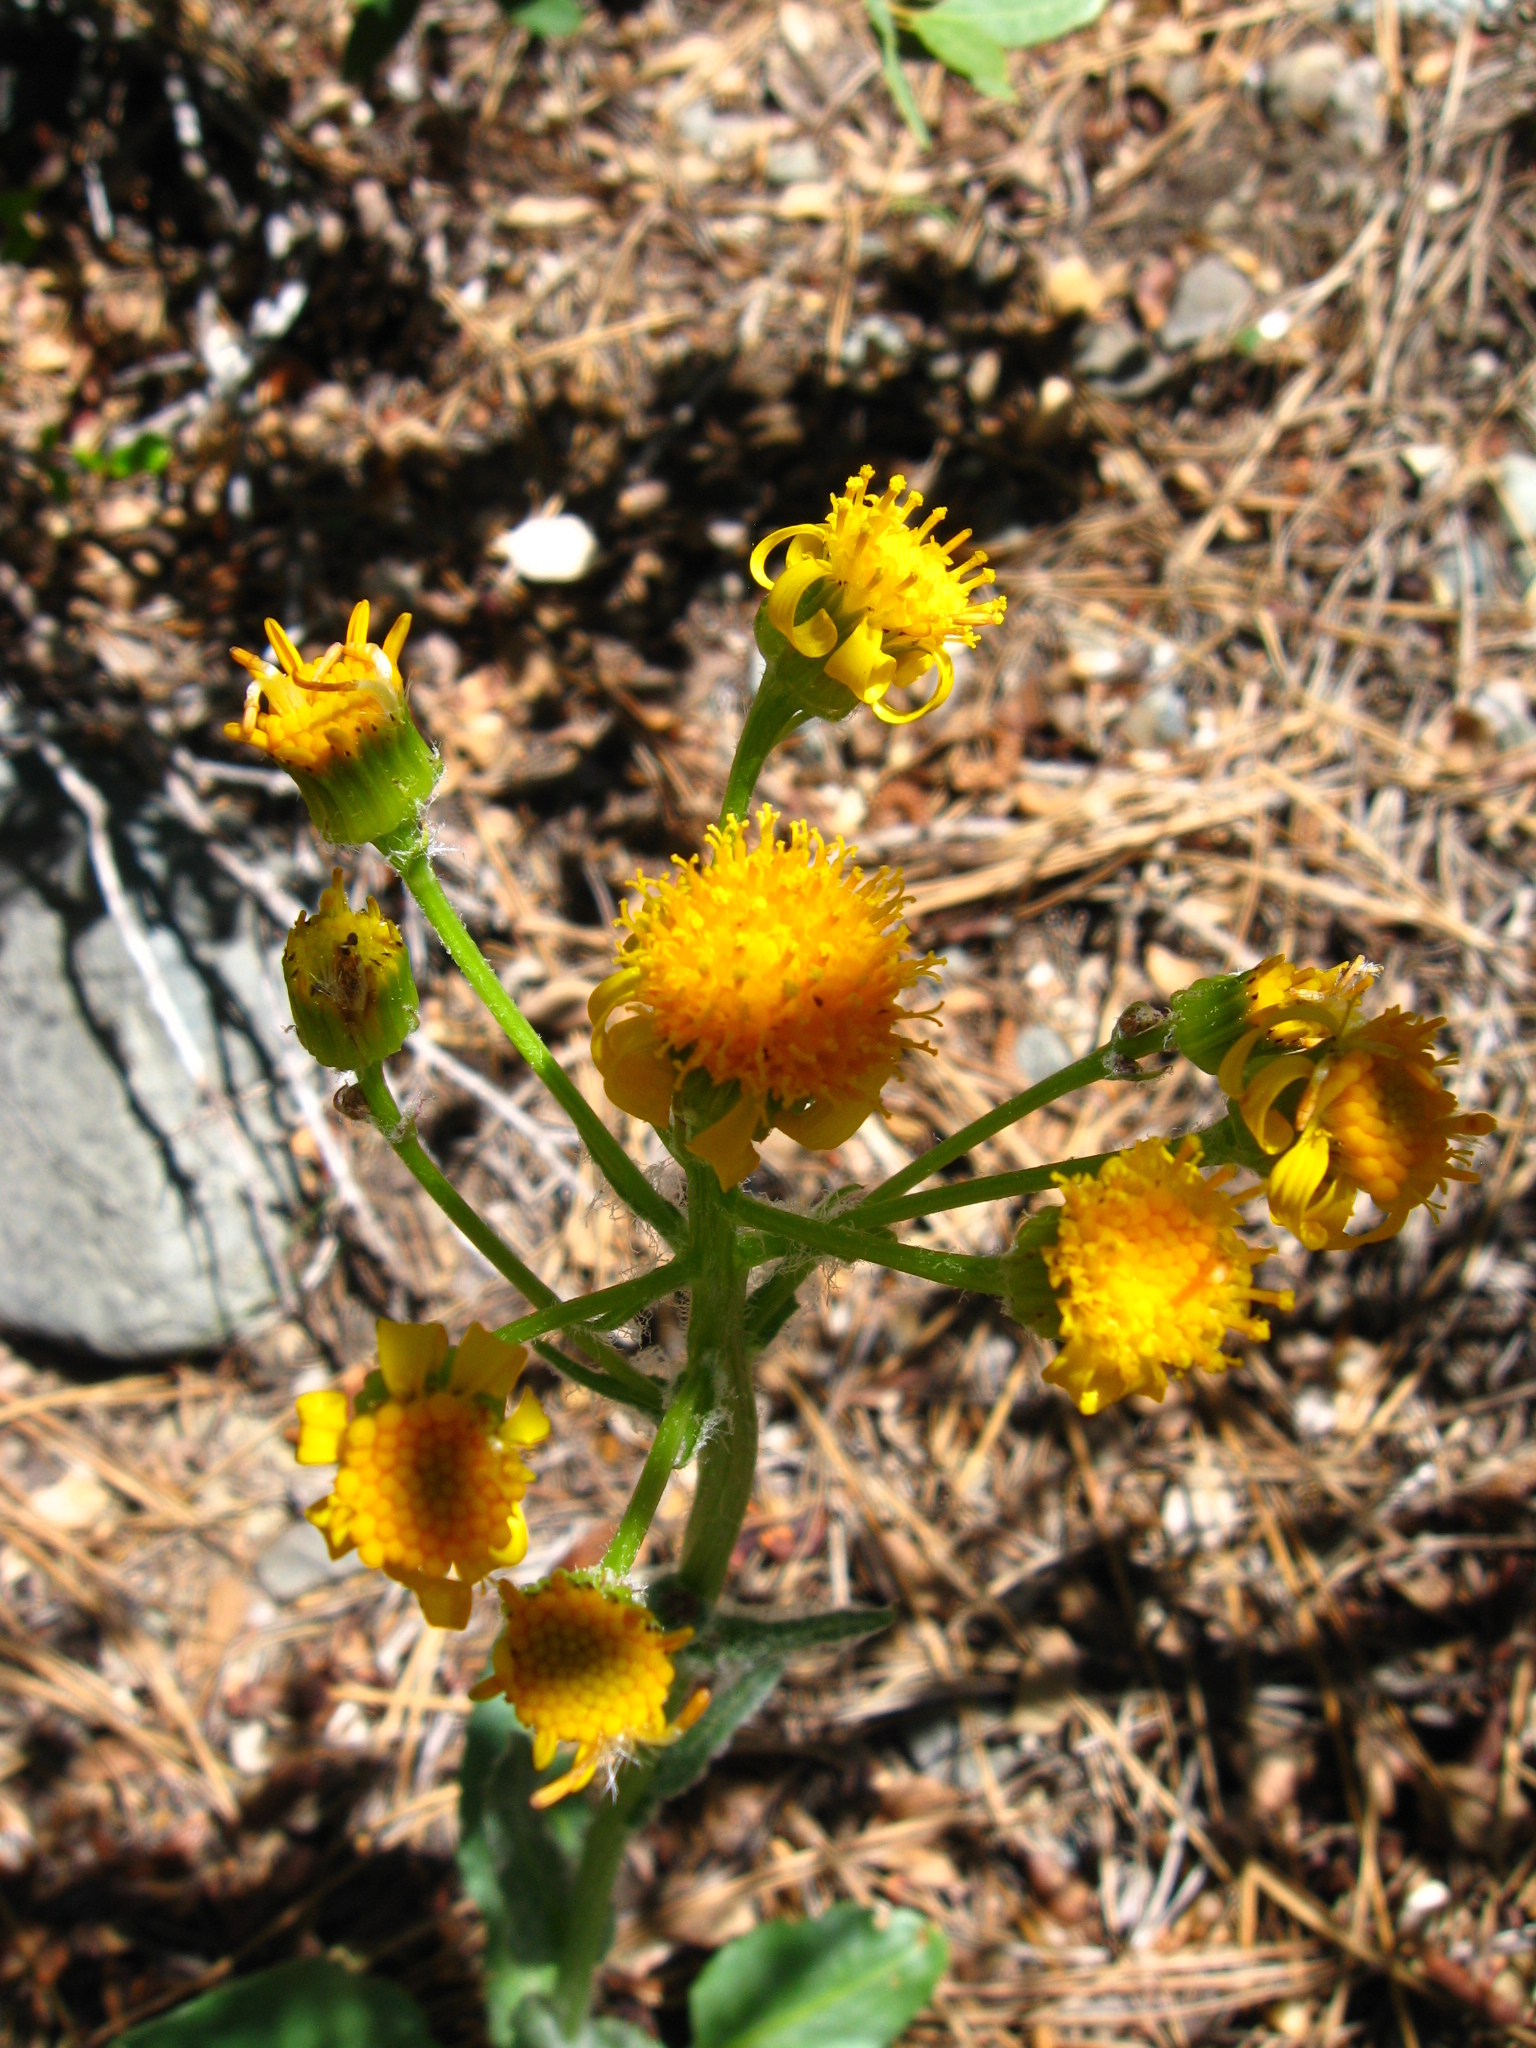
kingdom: Plantae
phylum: Tracheophyta
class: Magnoliopsida
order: Asterales
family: Asteraceae
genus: Senecio
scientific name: Senecio integerrimus
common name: Gaugeplant
